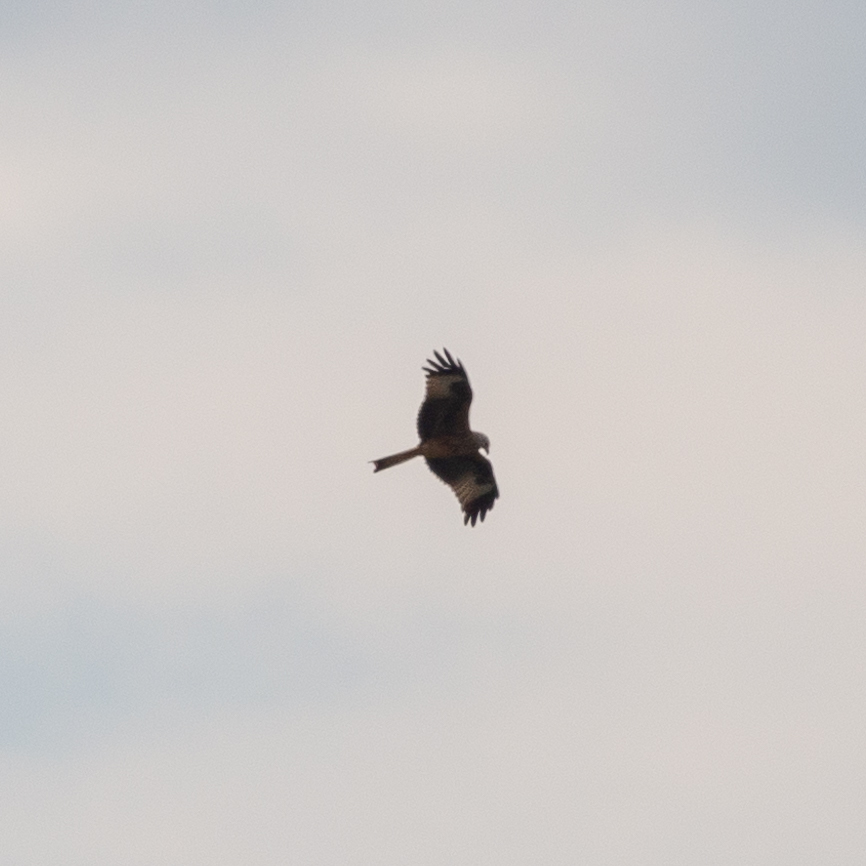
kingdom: Animalia
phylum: Chordata
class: Aves
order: Accipitriformes
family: Accipitridae
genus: Milvus
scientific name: Milvus milvus
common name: Red kite
